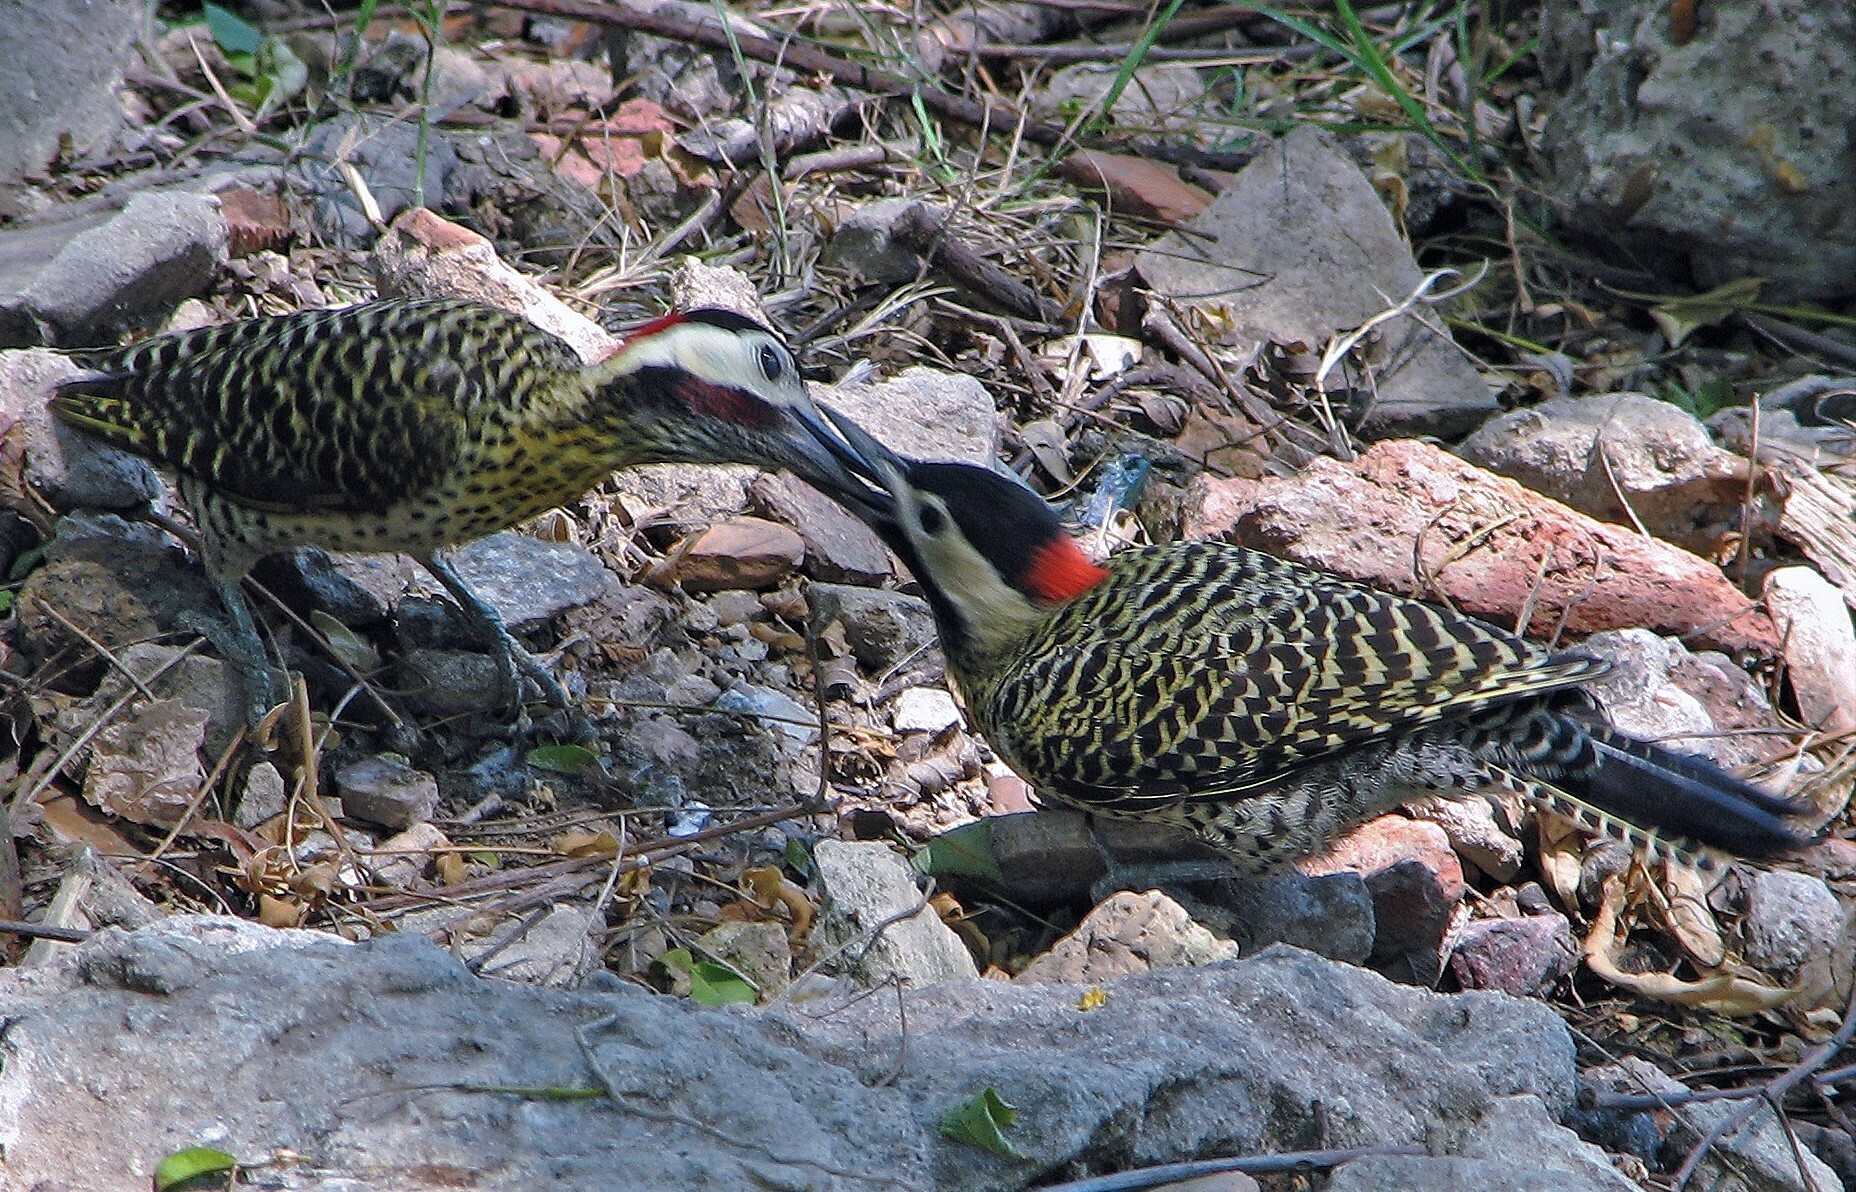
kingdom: Animalia
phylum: Chordata
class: Aves
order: Piciformes
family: Picidae
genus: Colaptes
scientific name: Colaptes melanochloros
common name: Green-barred woodpecker
